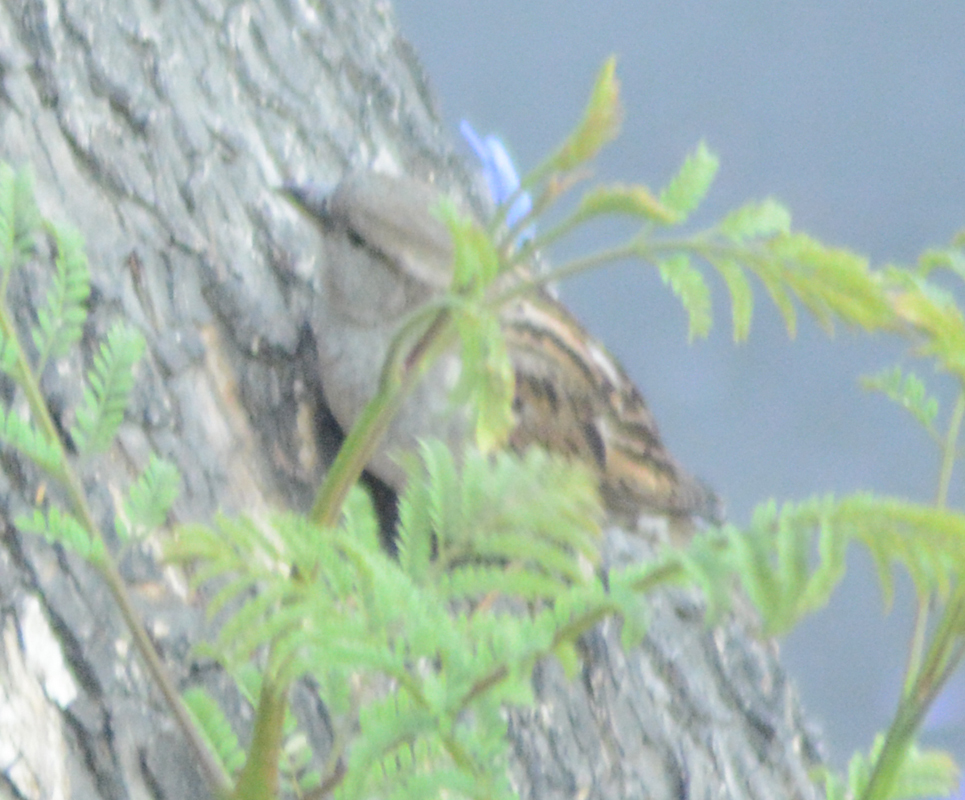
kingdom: Animalia
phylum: Chordata
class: Aves
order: Passeriformes
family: Passeridae
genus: Passer
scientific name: Passer domesticus
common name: House sparrow
